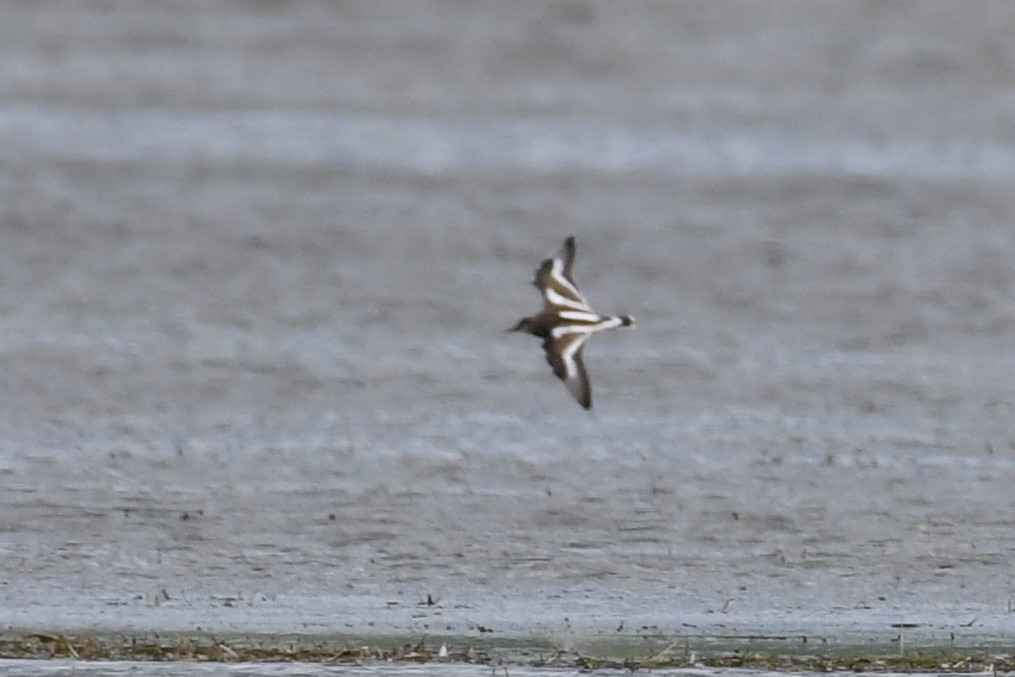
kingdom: Animalia
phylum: Chordata
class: Aves
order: Charadriiformes
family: Scolopacidae
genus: Arenaria
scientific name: Arenaria interpres
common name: Ruddy turnstone
